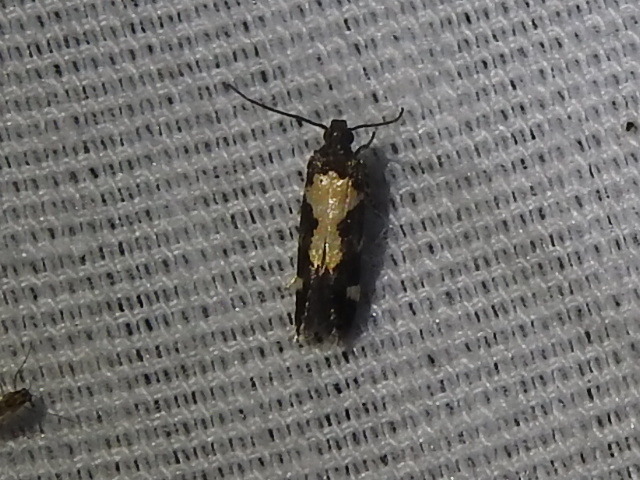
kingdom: Animalia
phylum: Arthropoda
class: Insecta
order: Lepidoptera
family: Gelechiidae
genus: Stegasta
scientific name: Stegasta bosqueella
